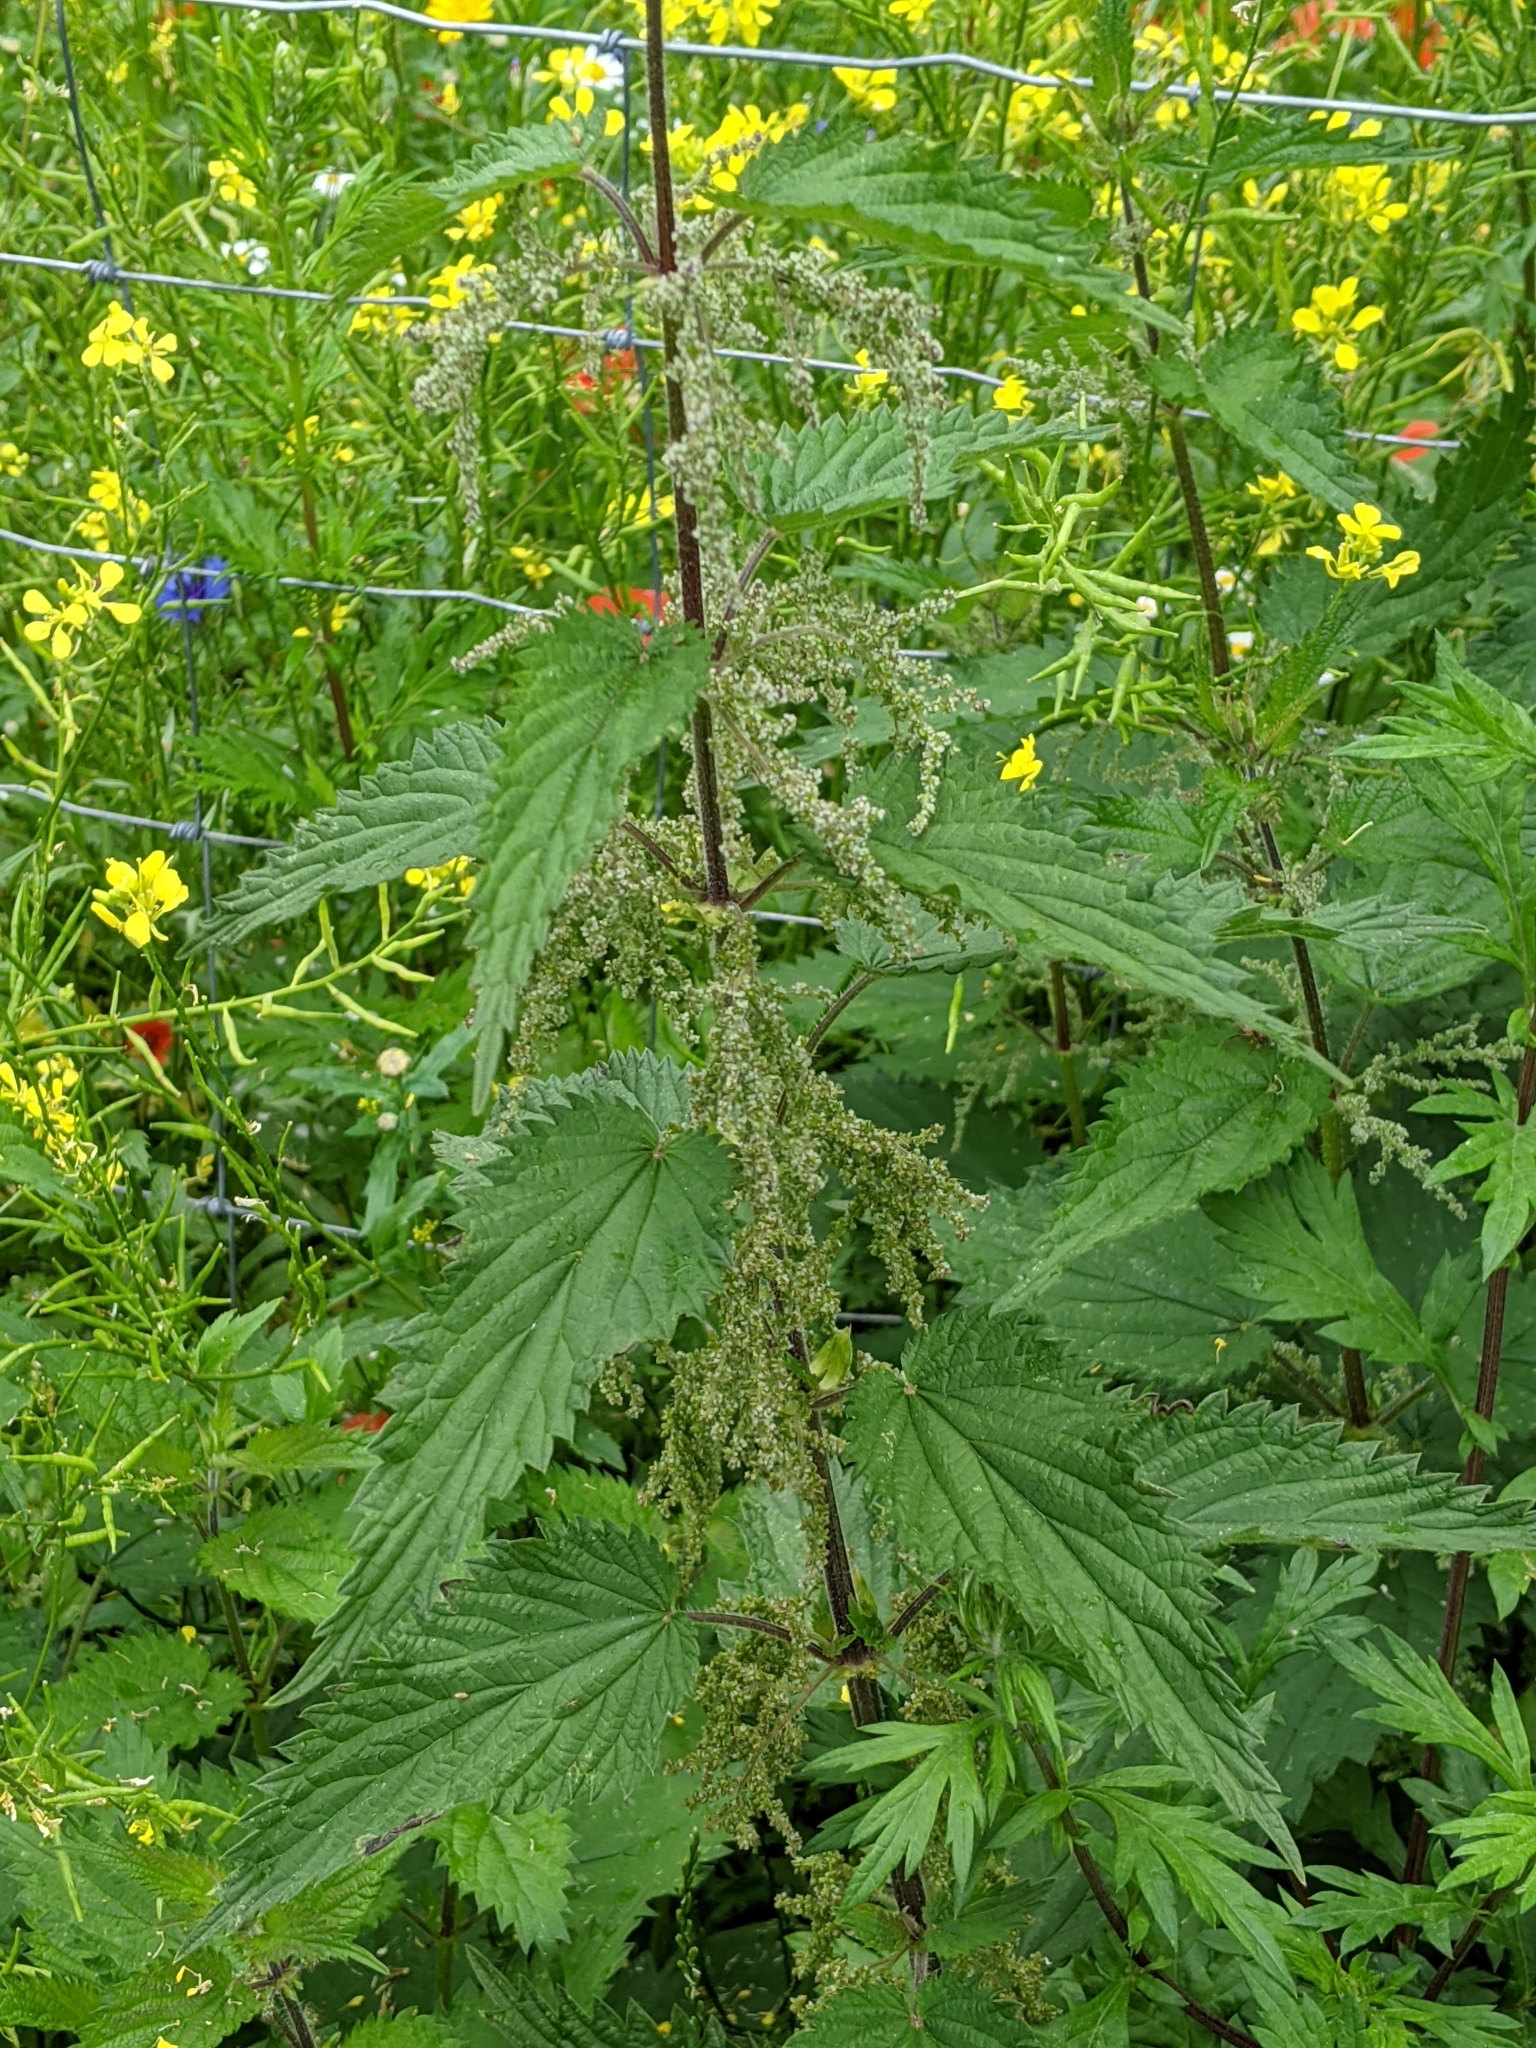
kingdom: Plantae
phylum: Tracheophyta
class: Magnoliopsida
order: Rosales
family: Urticaceae
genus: Urtica
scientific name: Urtica dioica
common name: Common nettle
